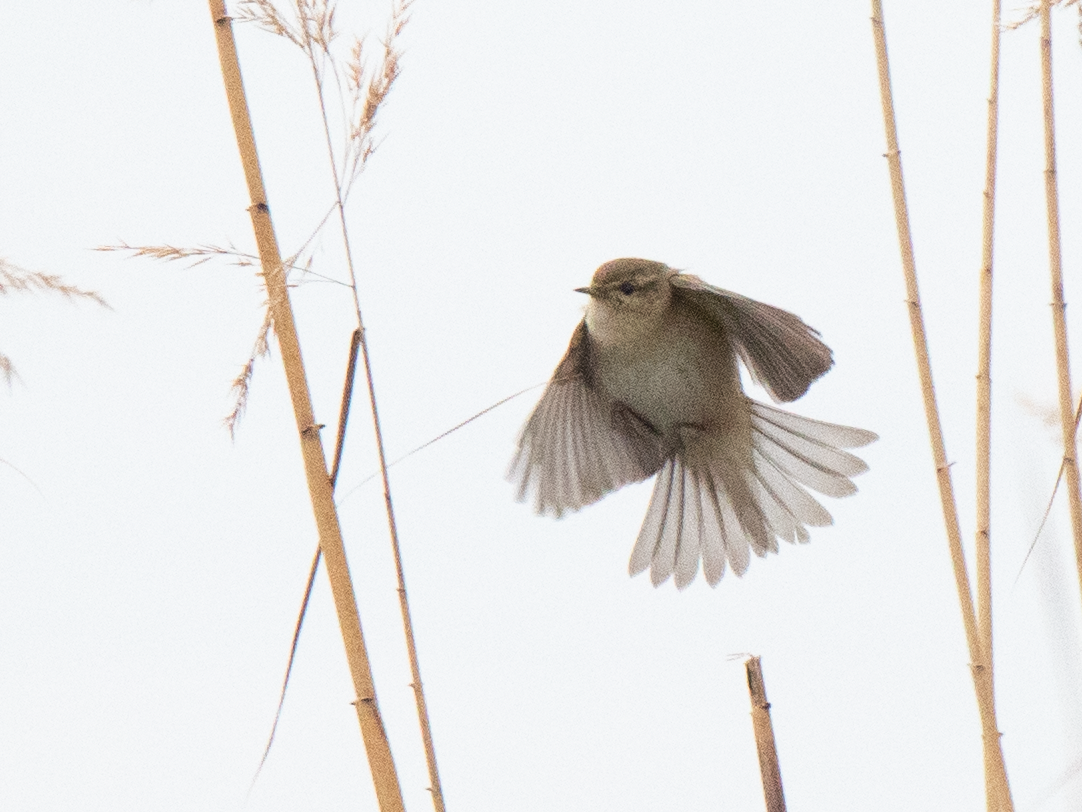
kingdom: Animalia
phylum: Chordata
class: Aves
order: Passeriformes
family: Phylloscopidae
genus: Phylloscopus
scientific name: Phylloscopus collybita
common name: Common chiffchaff
